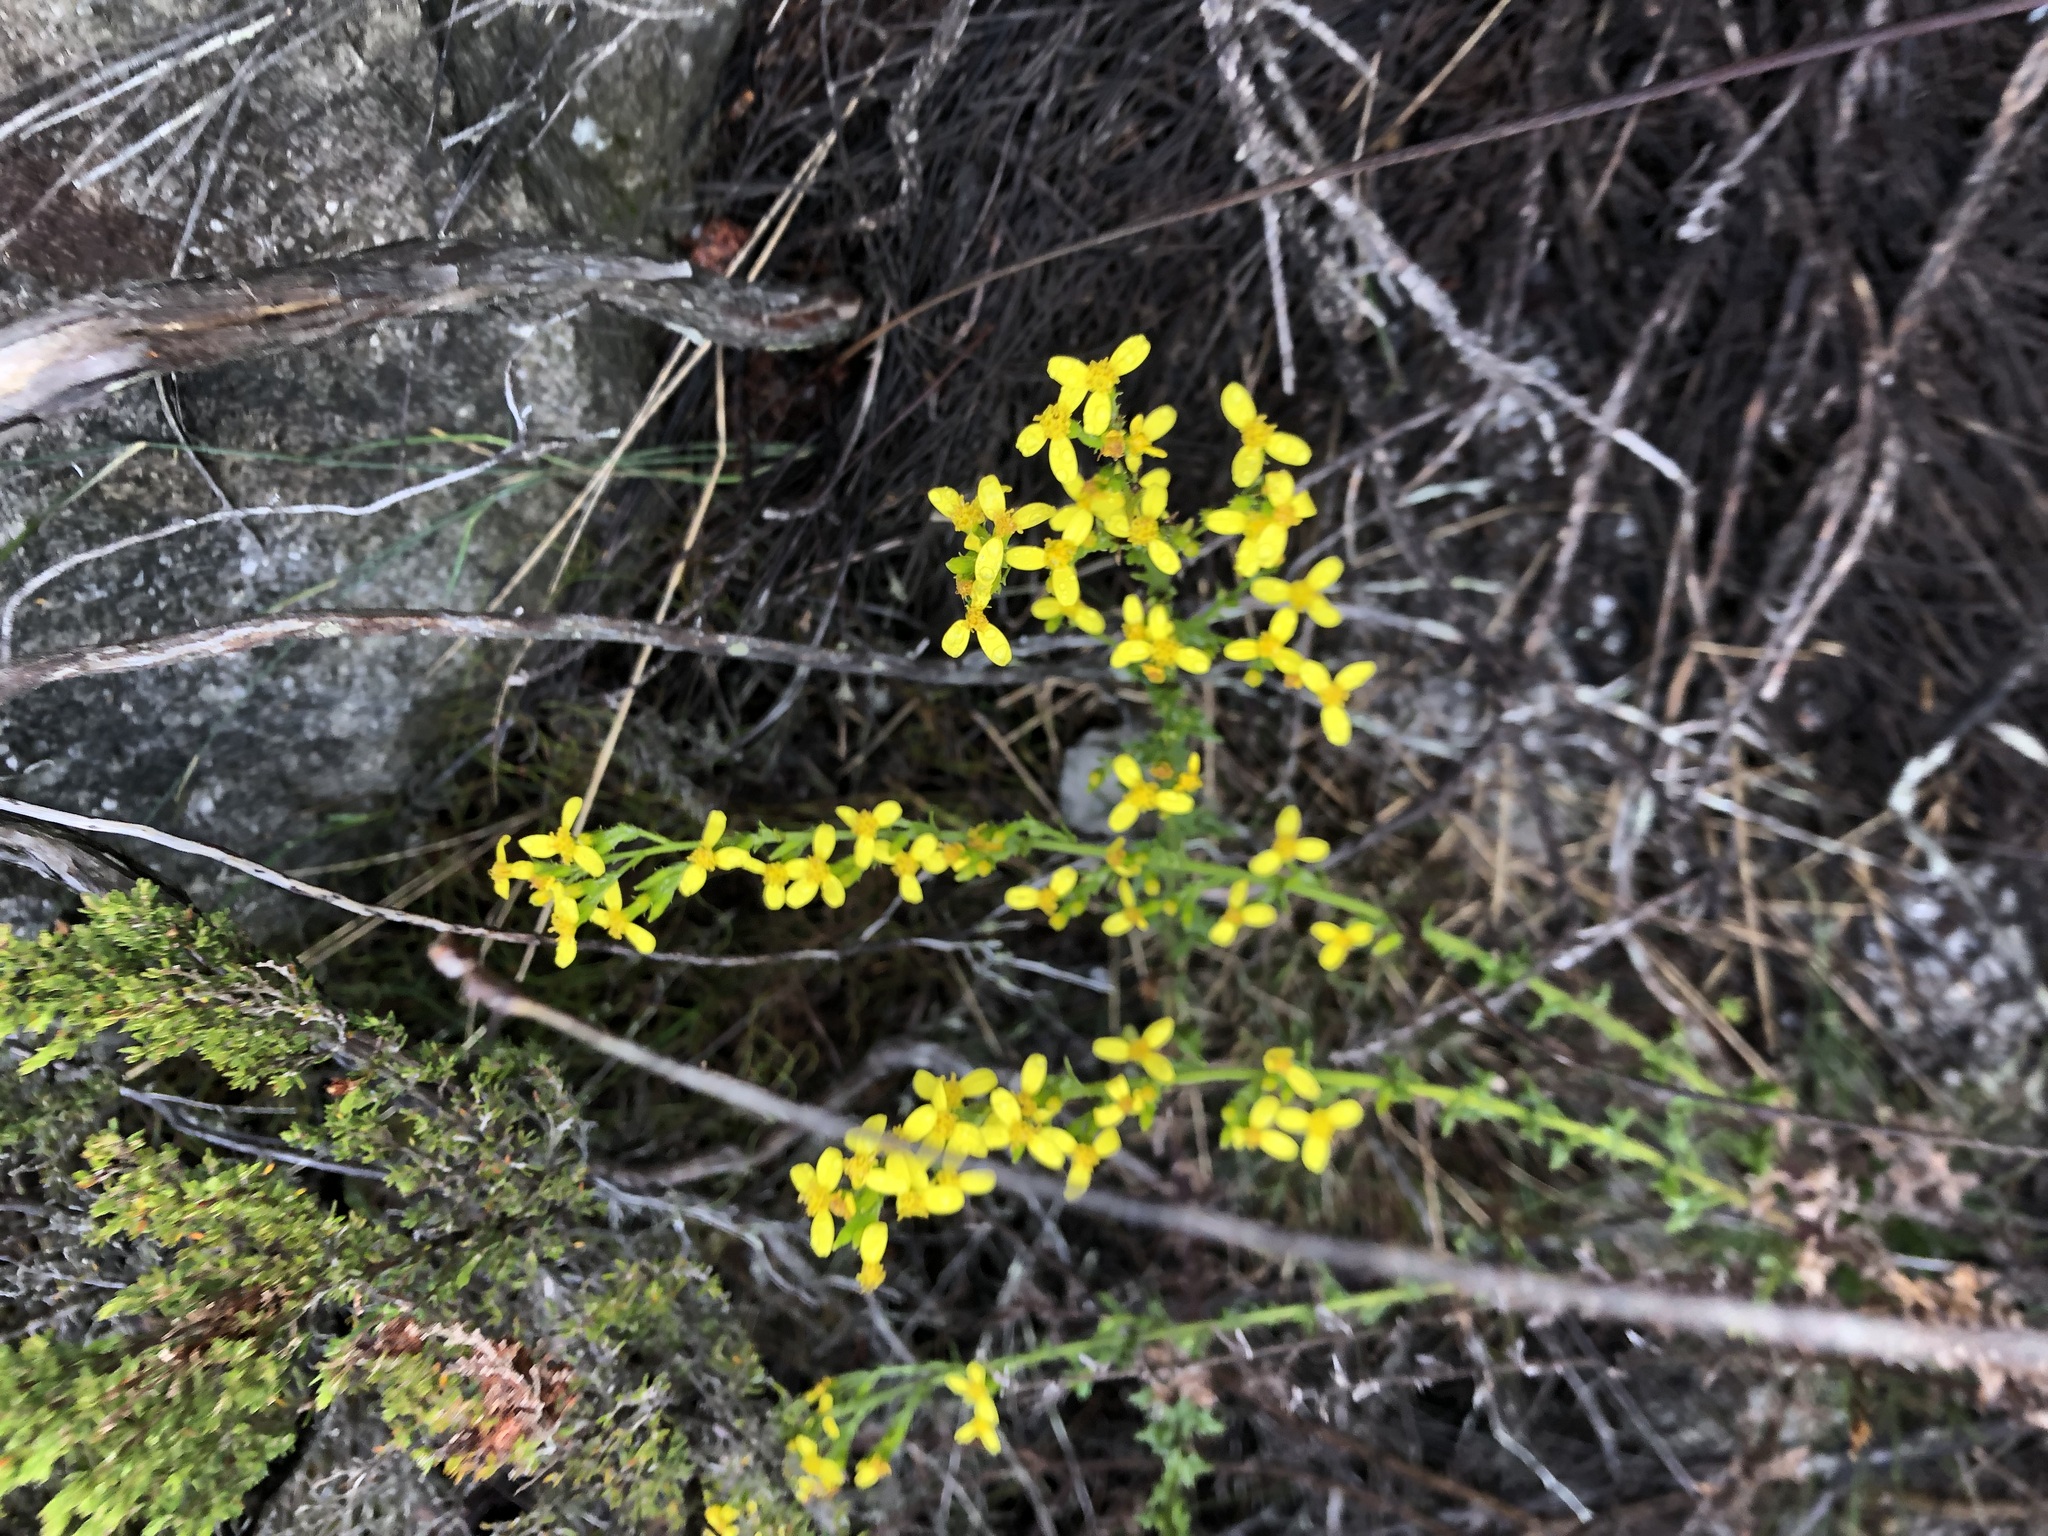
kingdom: Plantae
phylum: Tracheophyta
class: Magnoliopsida
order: Asterales
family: Asteraceae
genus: Senecio
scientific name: Senecio pubigerus
